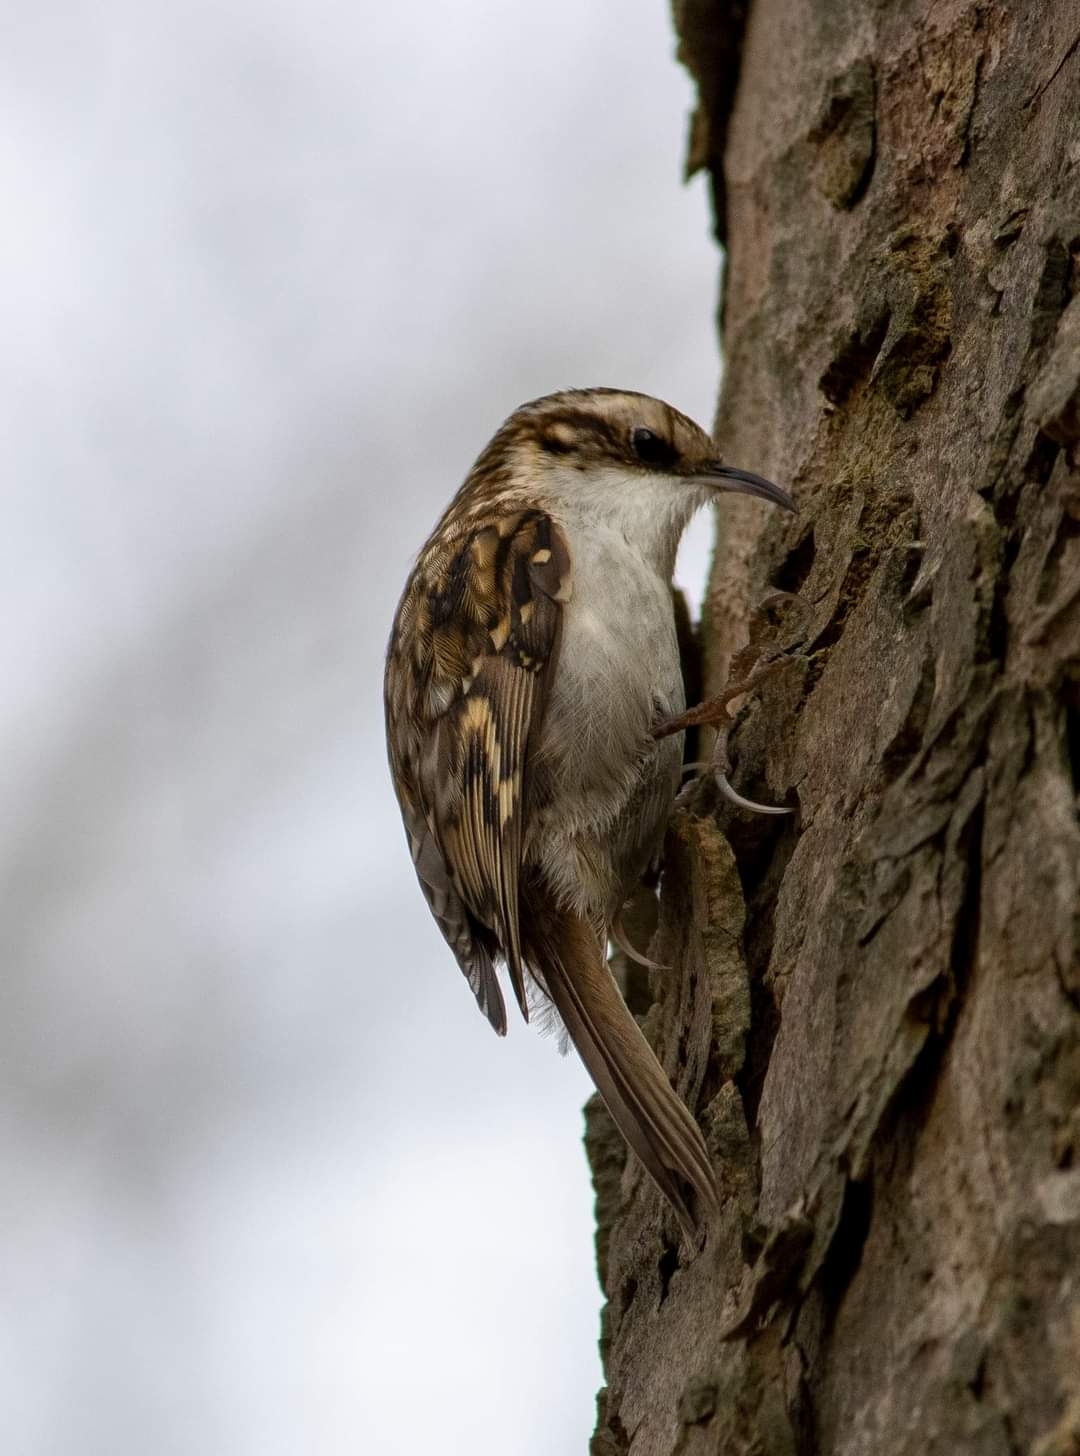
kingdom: Animalia
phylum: Chordata
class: Aves
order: Passeriformes
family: Certhiidae
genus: Certhia
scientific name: Certhia familiaris
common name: Eurasian treecreeper
